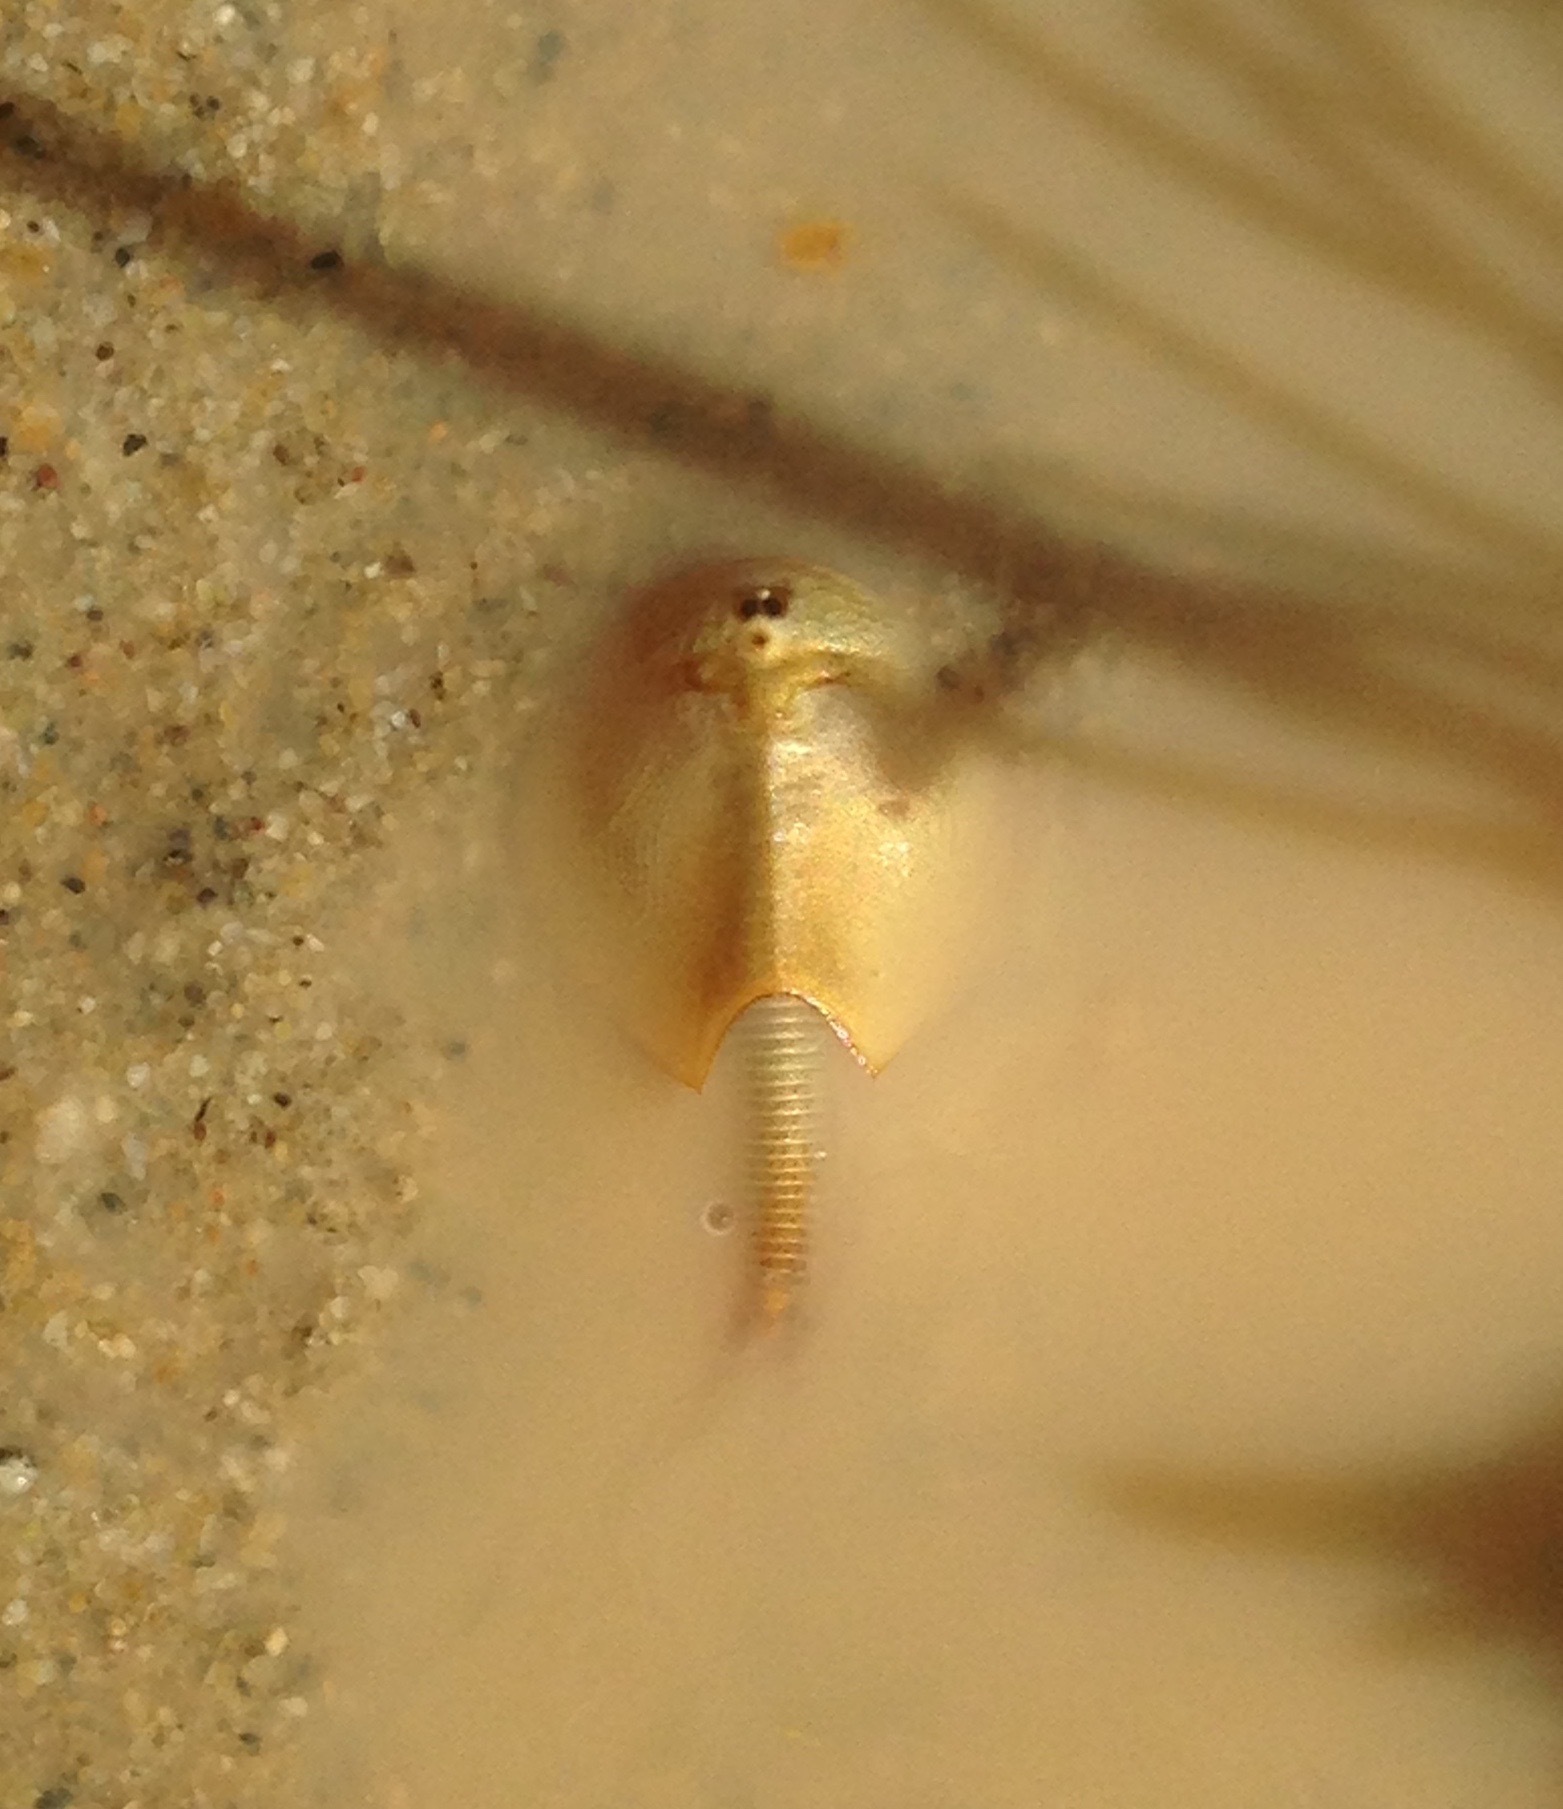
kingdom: Animalia
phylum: Arthropoda
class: Branchiopoda
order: Notostraca
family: Triopsidae
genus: Lepidurus
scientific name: Lepidurus lemmoni
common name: Lynch tadpole shrimp
